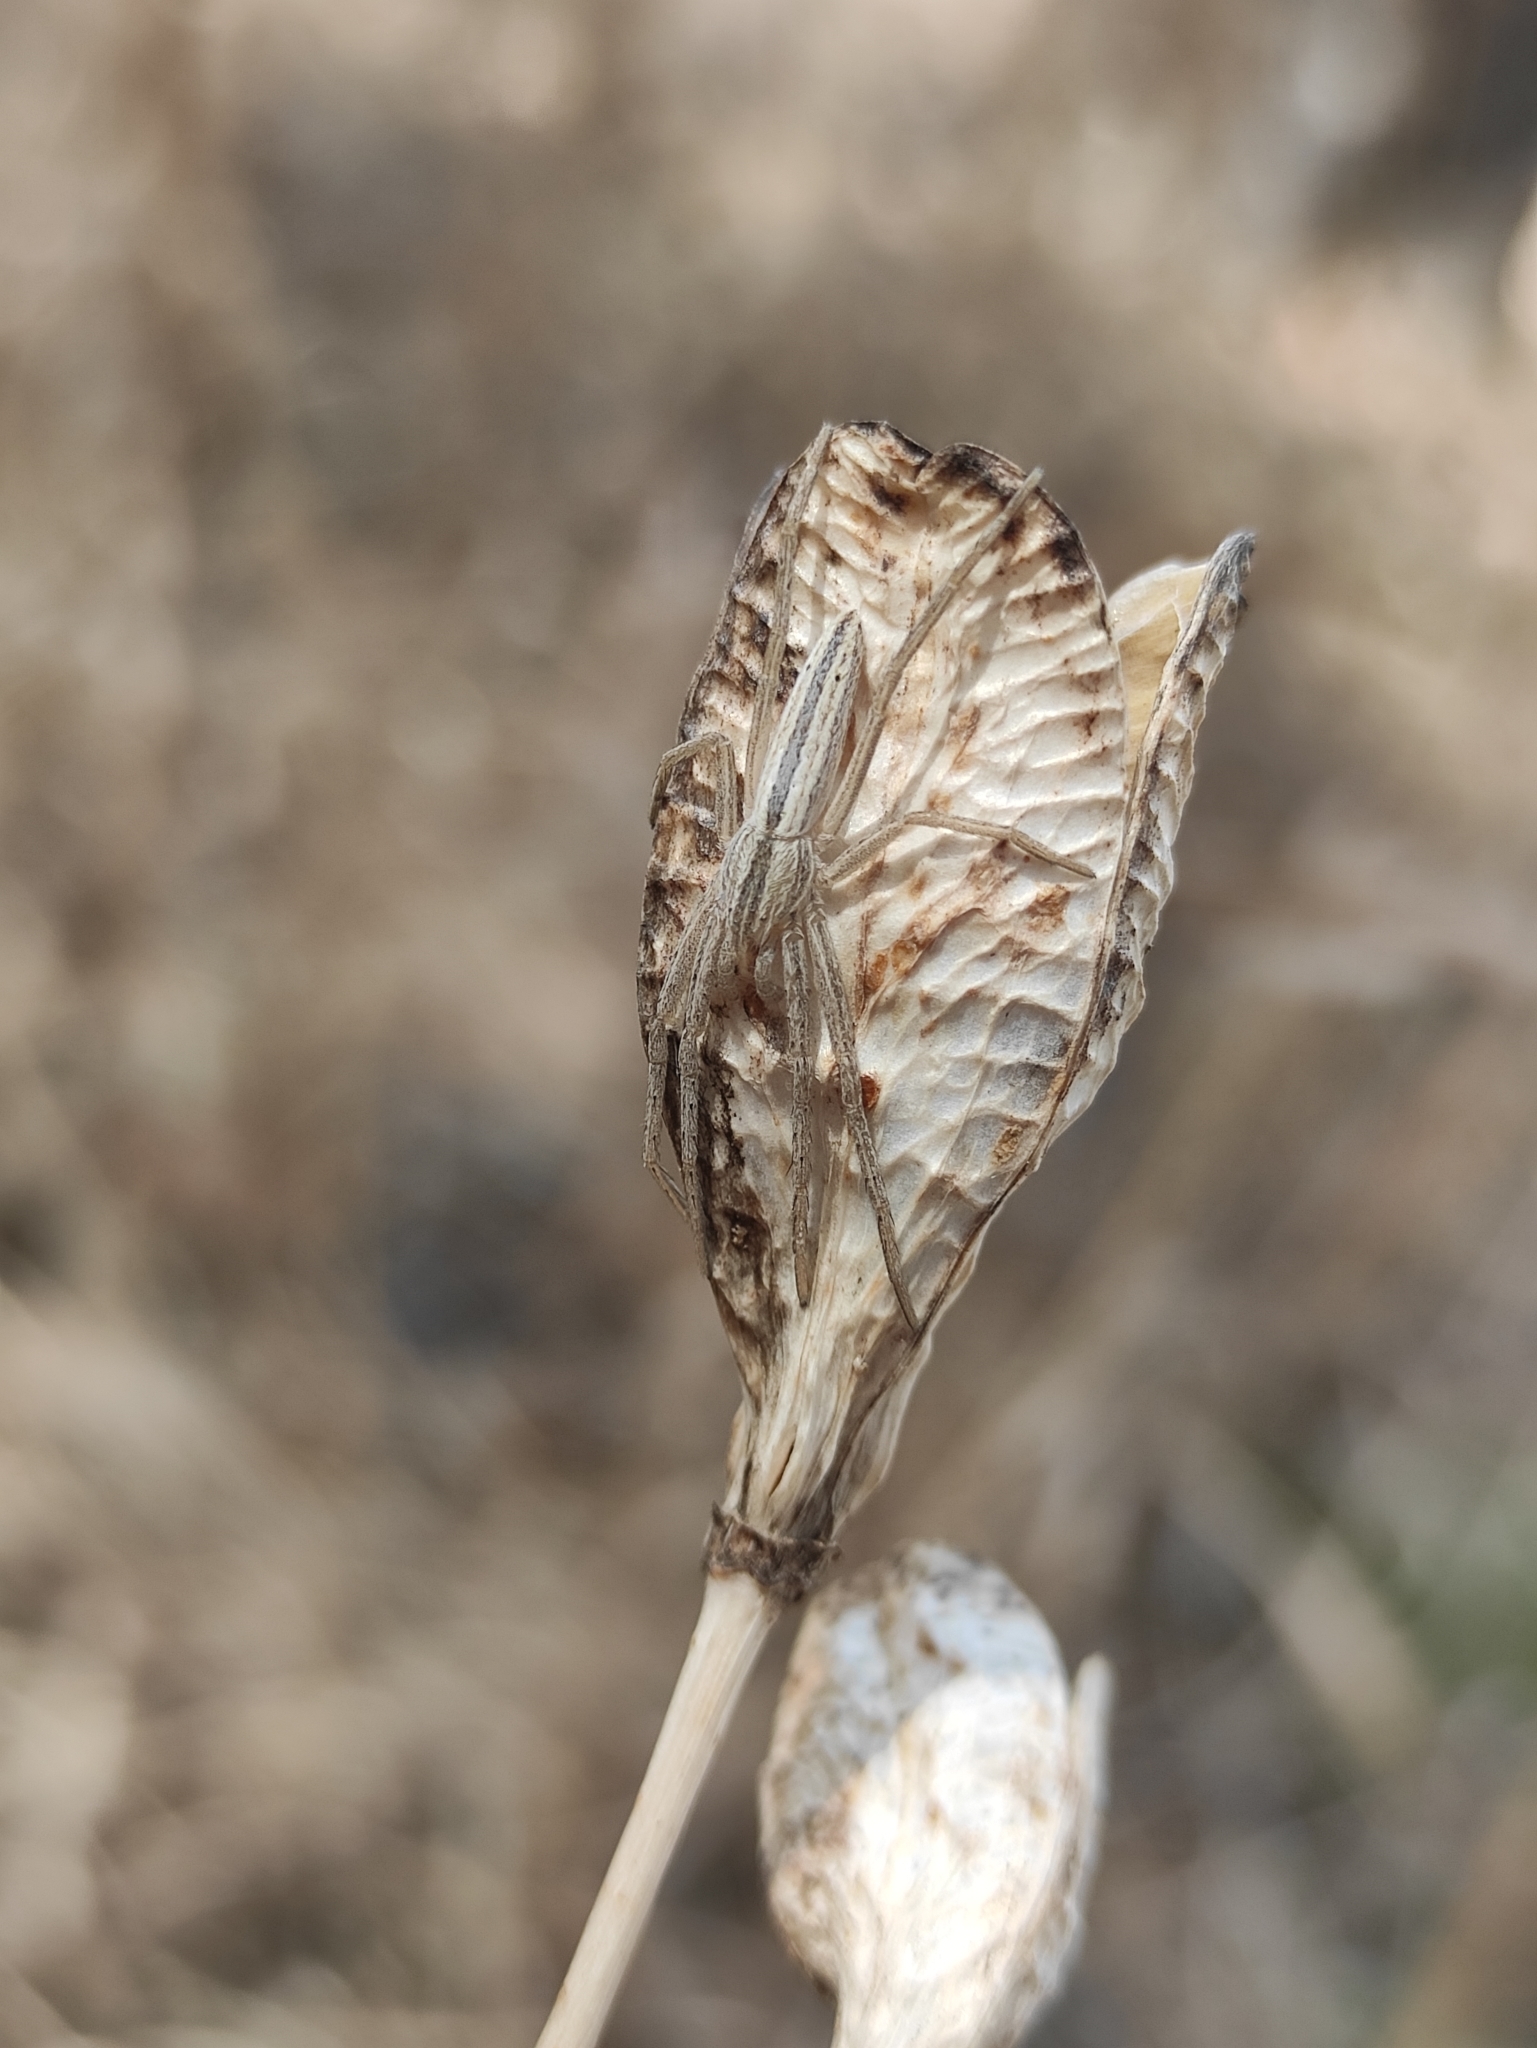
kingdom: Plantae
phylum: Tracheophyta
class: Liliopsida
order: Asparagales
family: Asphodelaceae
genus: Hemerocallis
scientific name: Hemerocallis minor
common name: Small daylily
